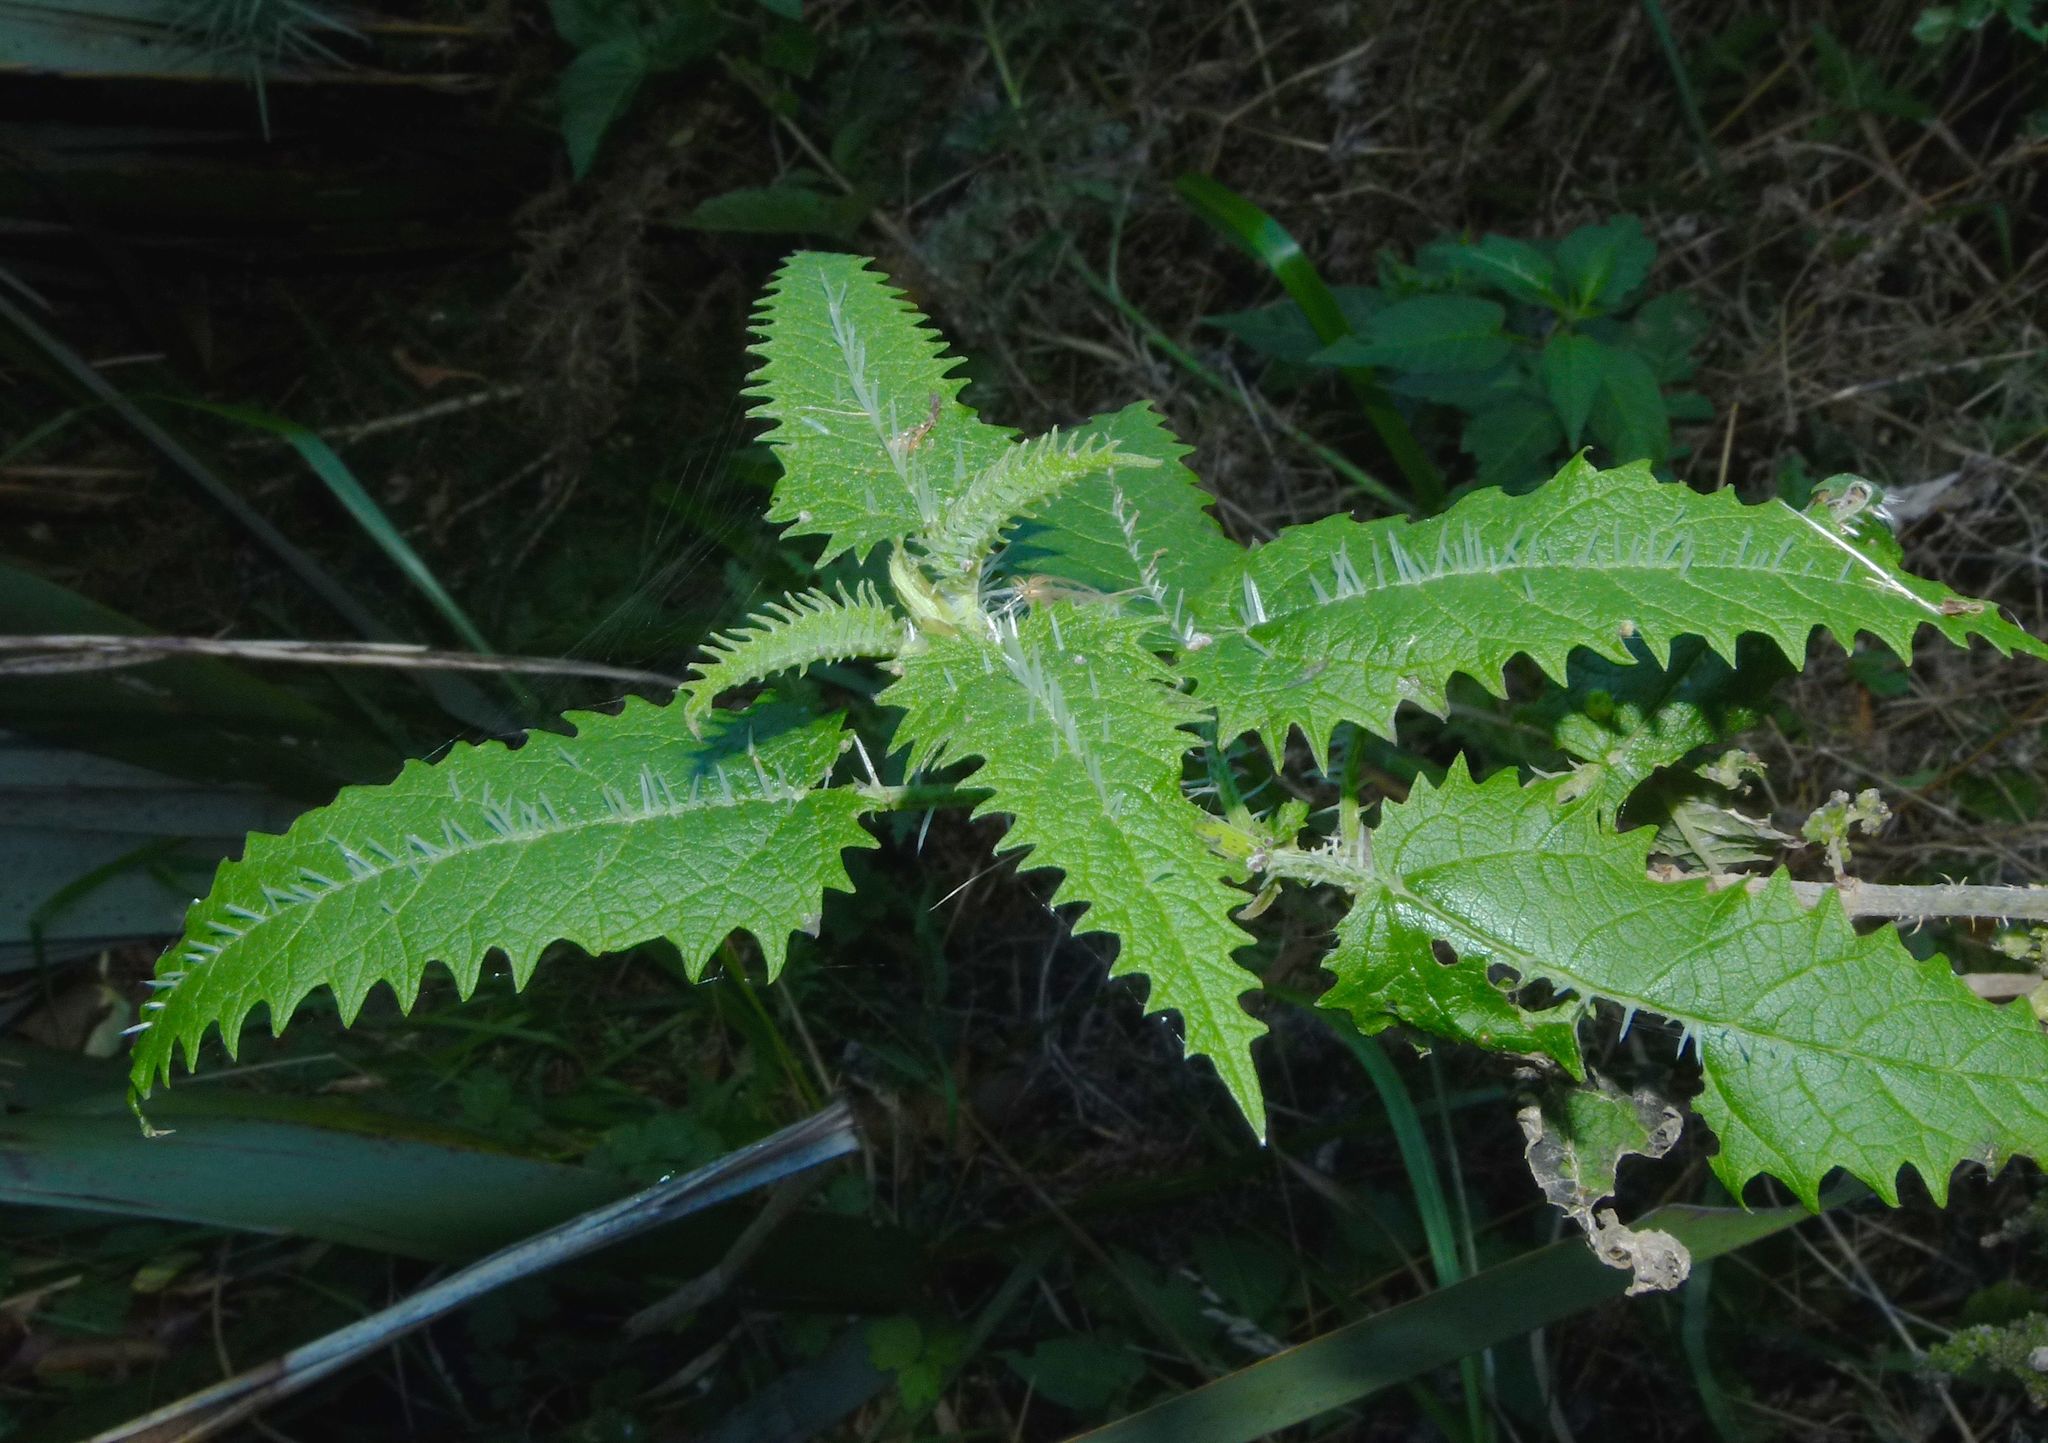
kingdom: Plantae
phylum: Tracheophyta
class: Magnoliopsida
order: Rosales
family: Urticaceae
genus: Urtica
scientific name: Urtica ferox
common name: Tree nettle
